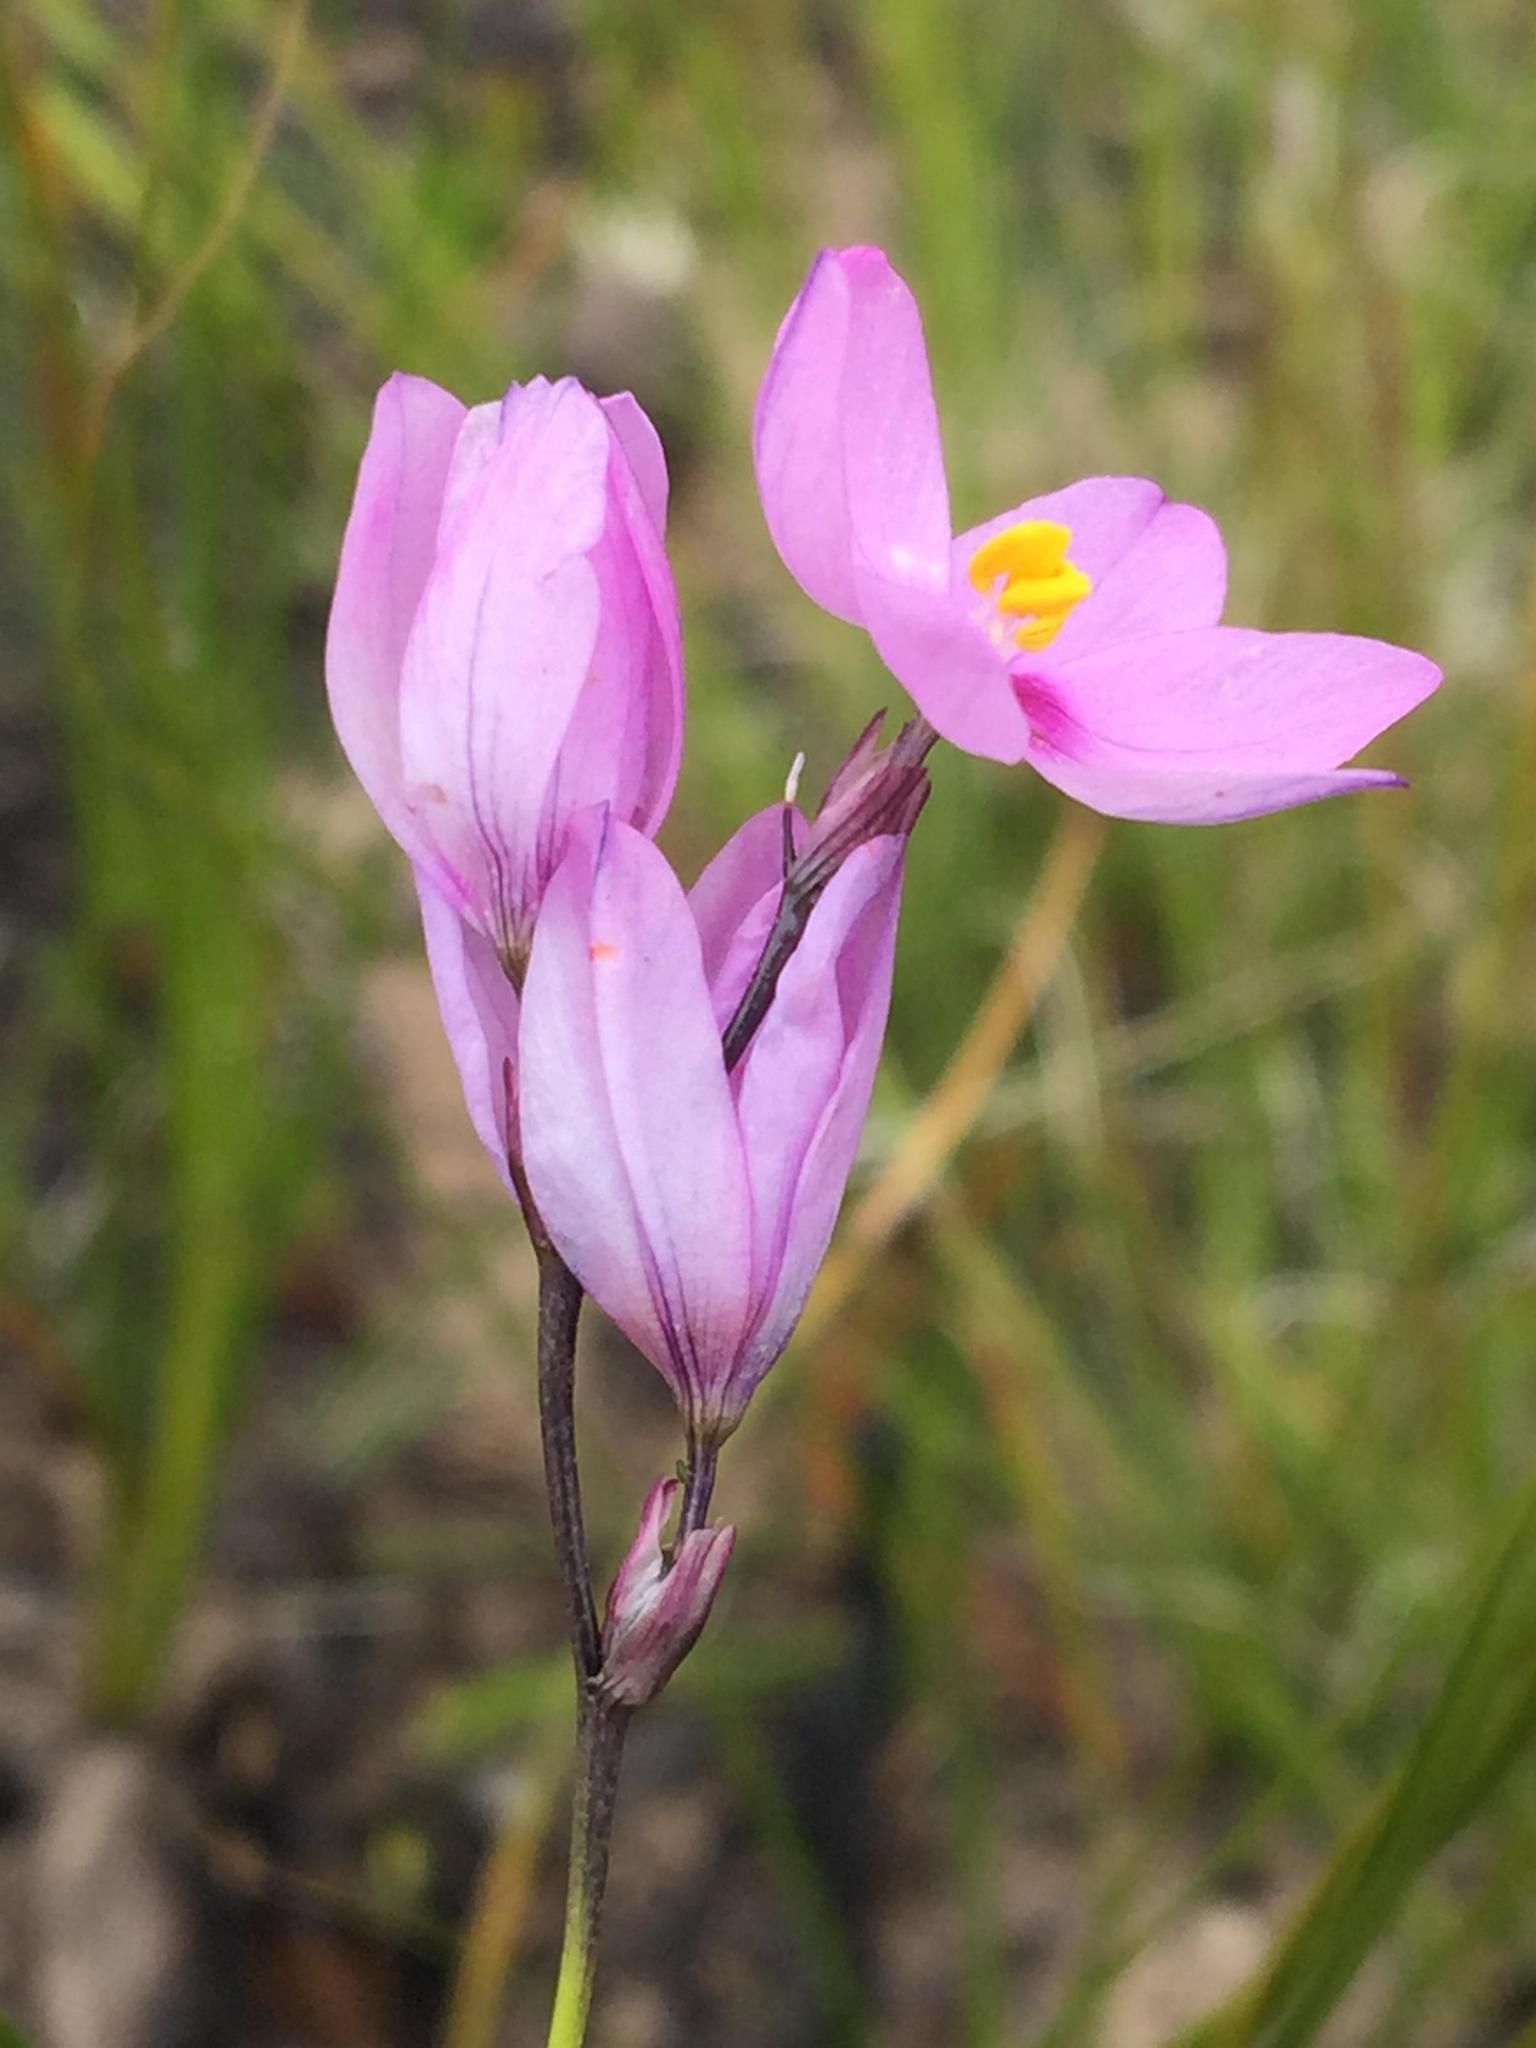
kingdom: Plantae
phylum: Tracheophyta
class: Liliopsida
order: Asparagales
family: Iridaceae
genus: Ixia
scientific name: Ixia confusa
